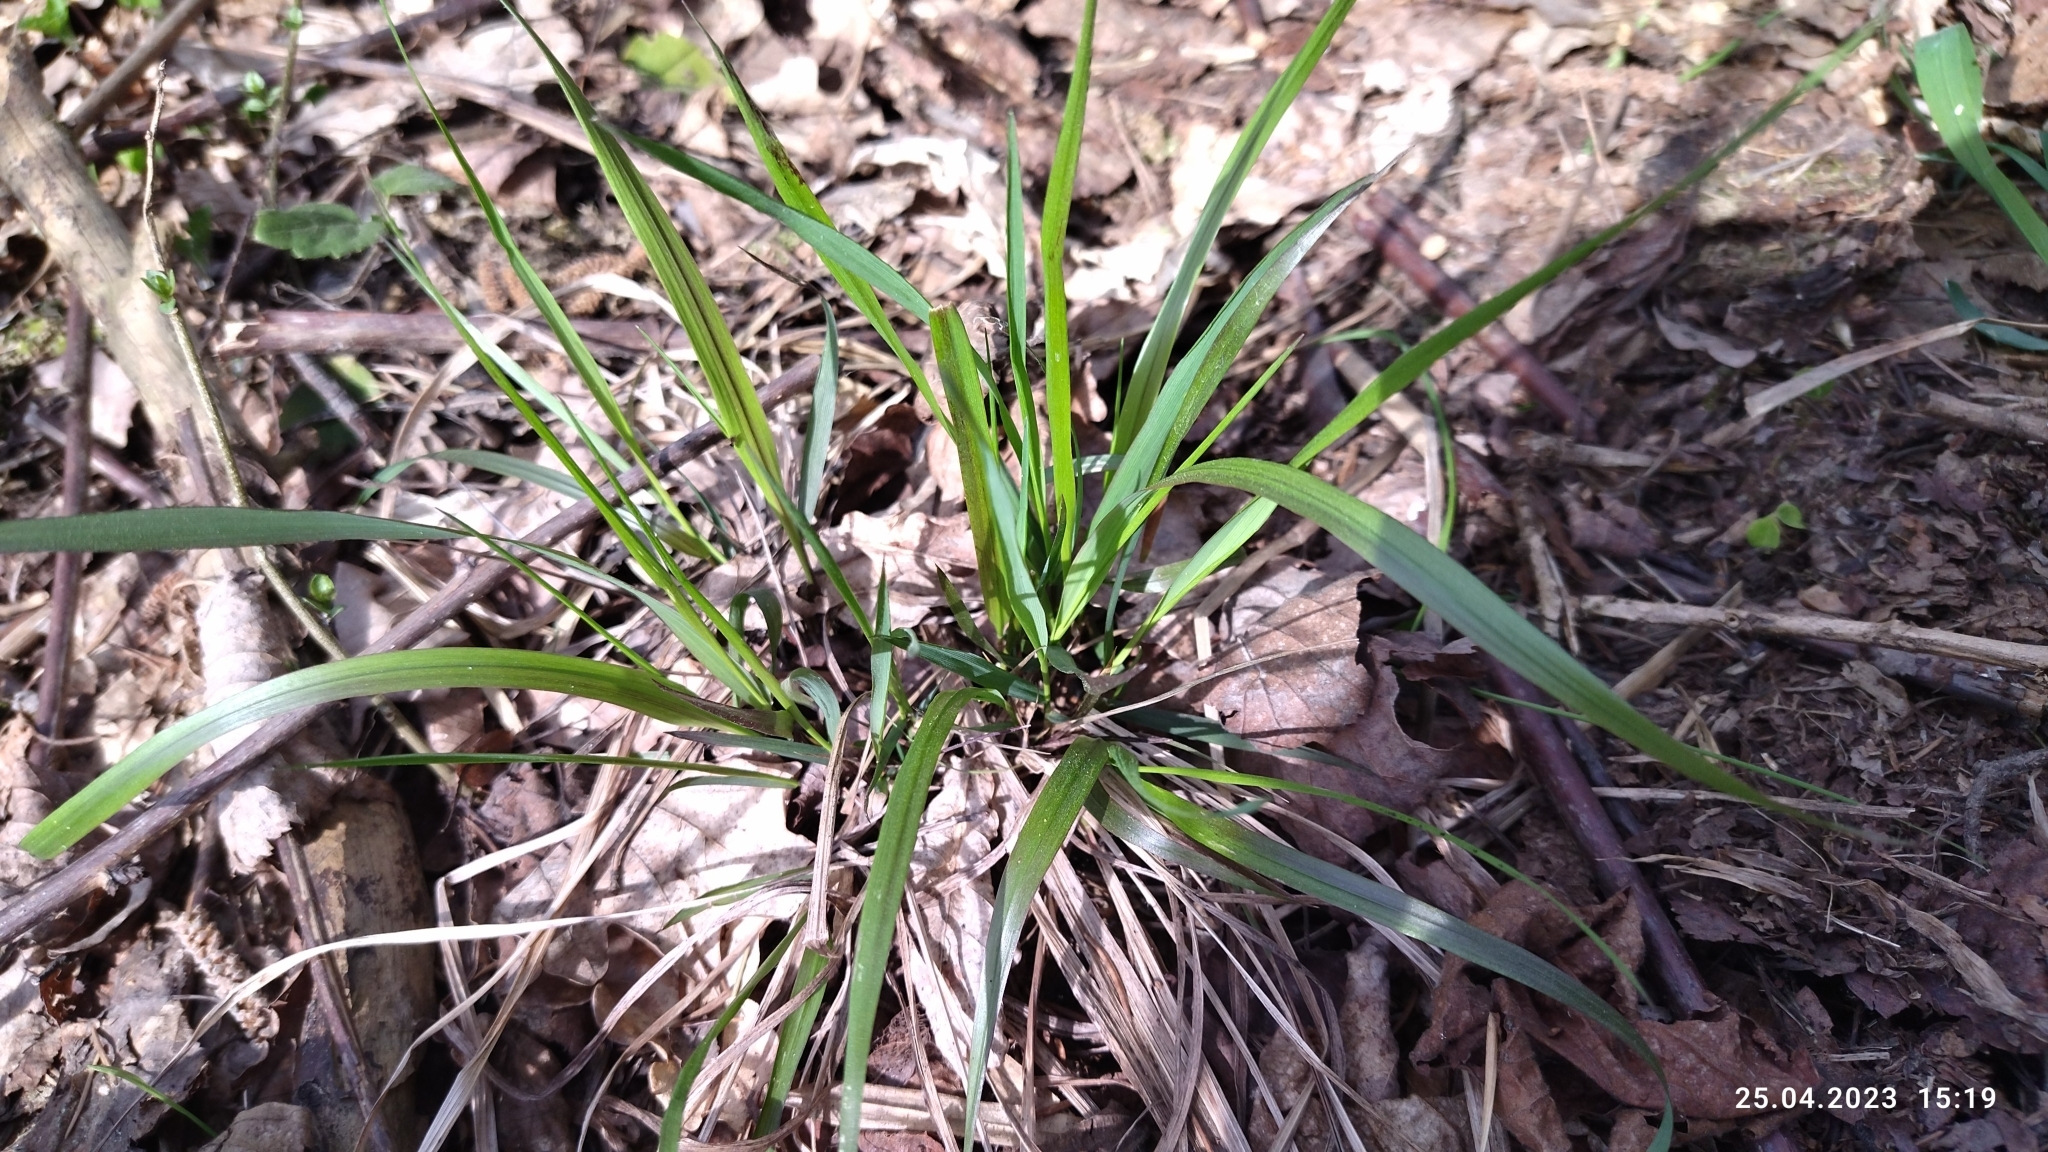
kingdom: Plantae
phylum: Tracheophyta
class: Liliopsida
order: Poales
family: Poaceae
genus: Calamagrostis
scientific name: Calamagrostis arundinacea
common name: Metskastik
